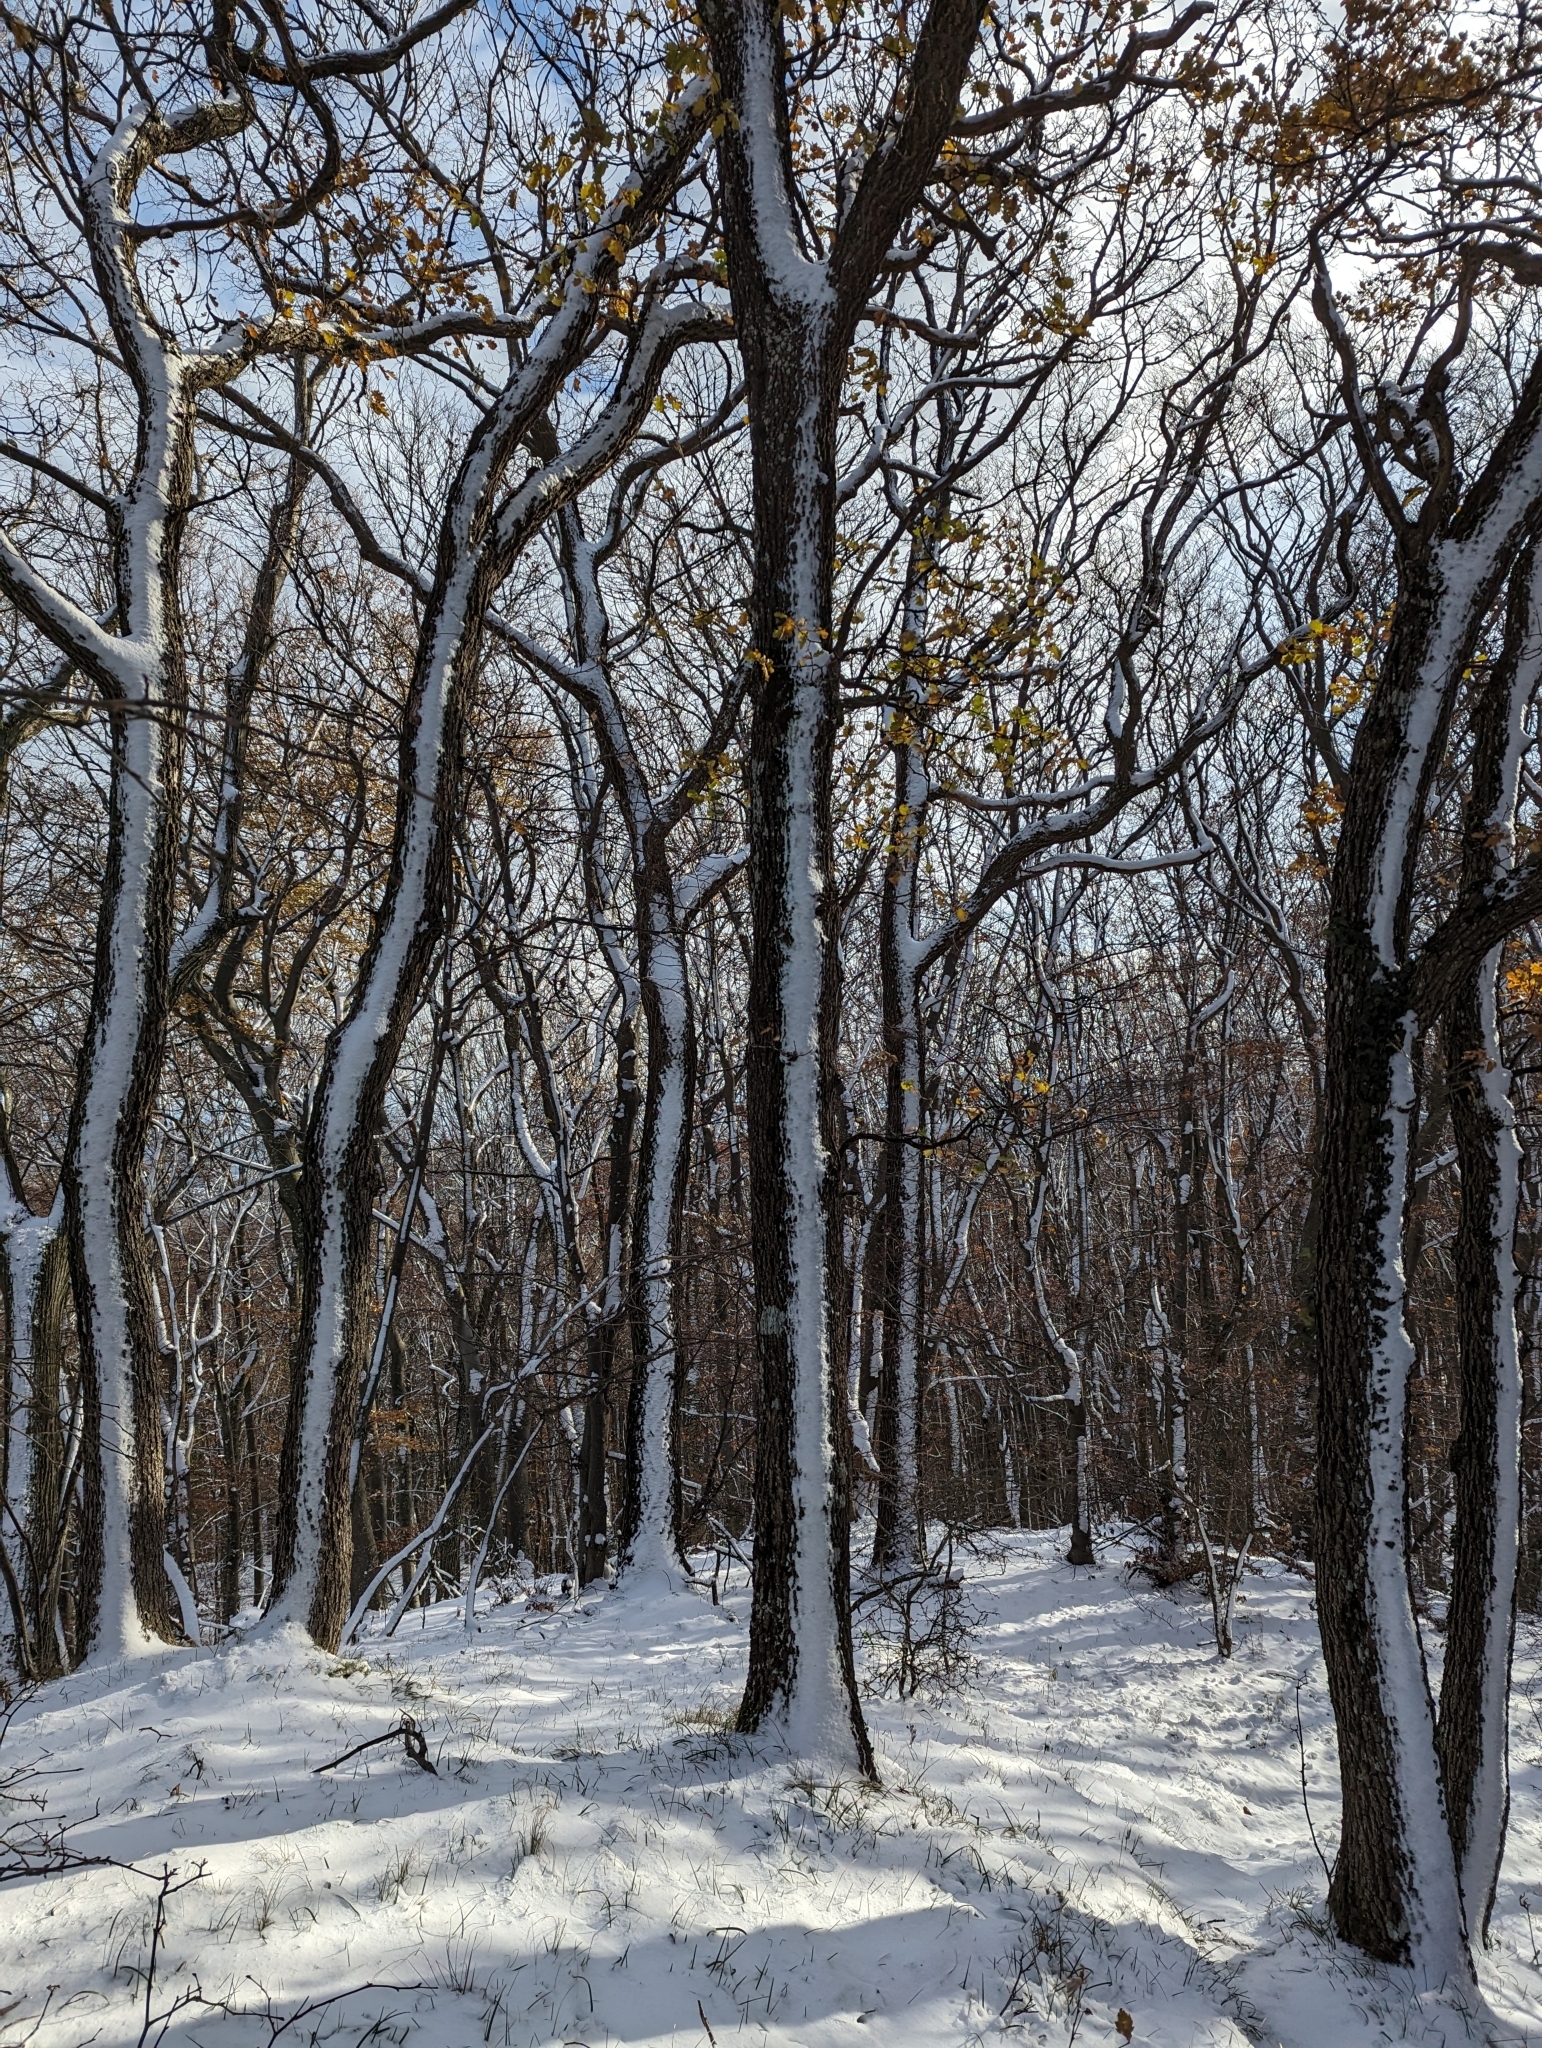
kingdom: Plantae
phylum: Tracheophyta
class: Magnoliopsida
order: Fagales
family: Fagaceae
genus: Quercus
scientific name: Quercus pubescens
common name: Downy oak
